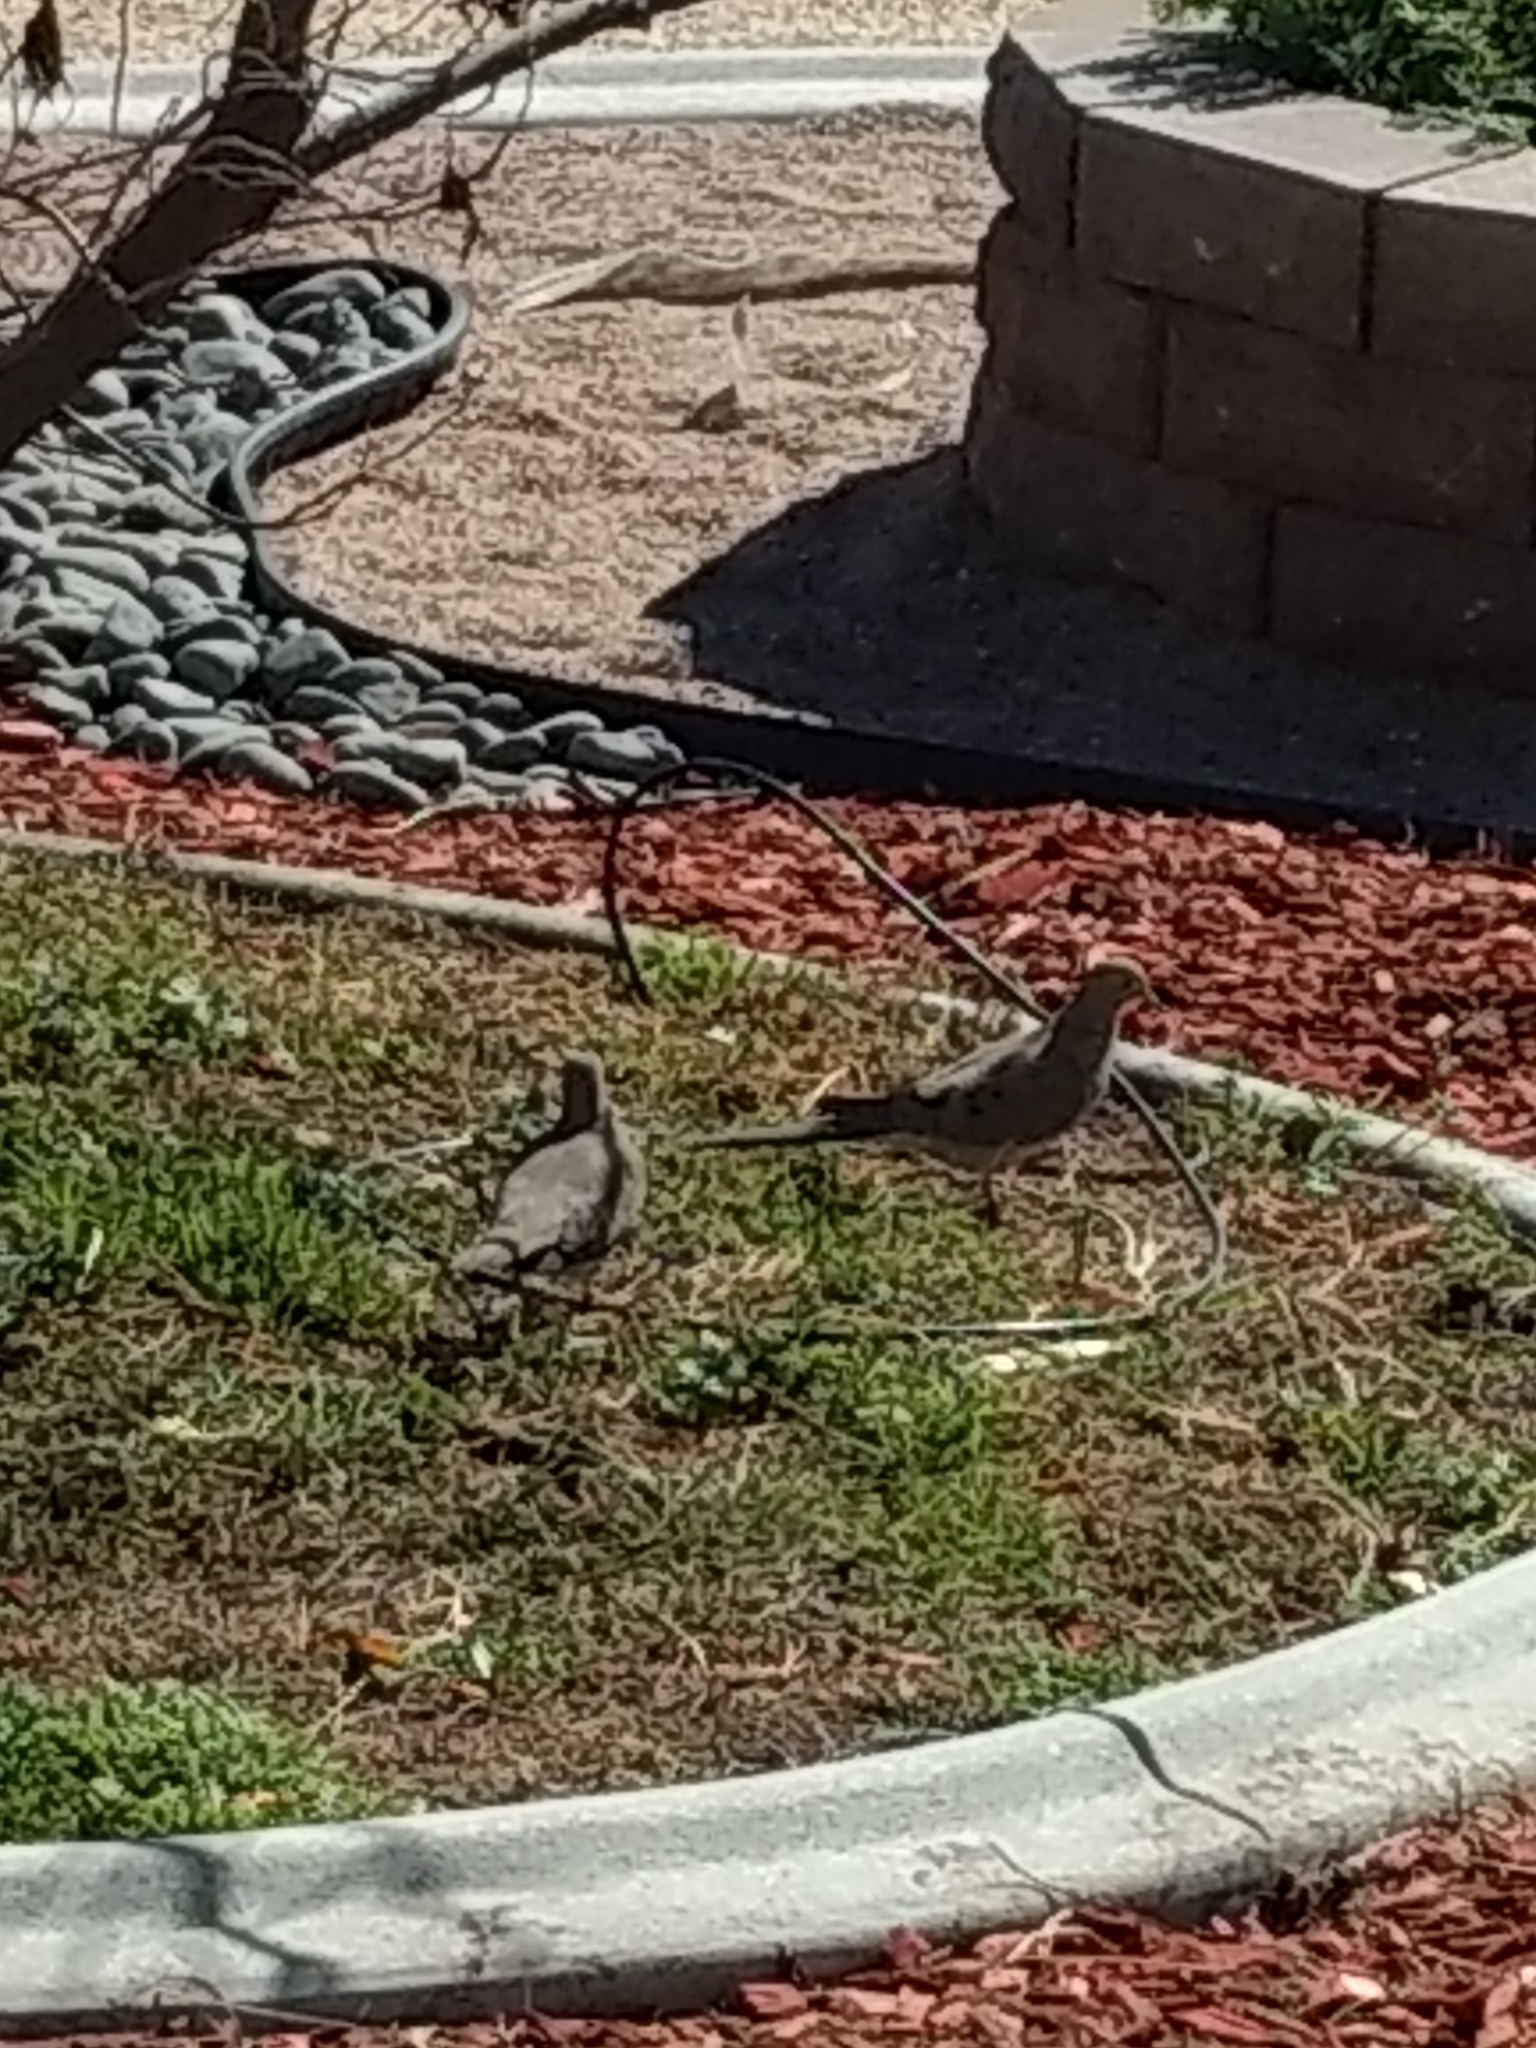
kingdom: Animalia
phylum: Chordata
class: Aves
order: Columbiformes
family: Columbidae
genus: Zenaida
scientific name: Zenaida macroura
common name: Mourning dove
